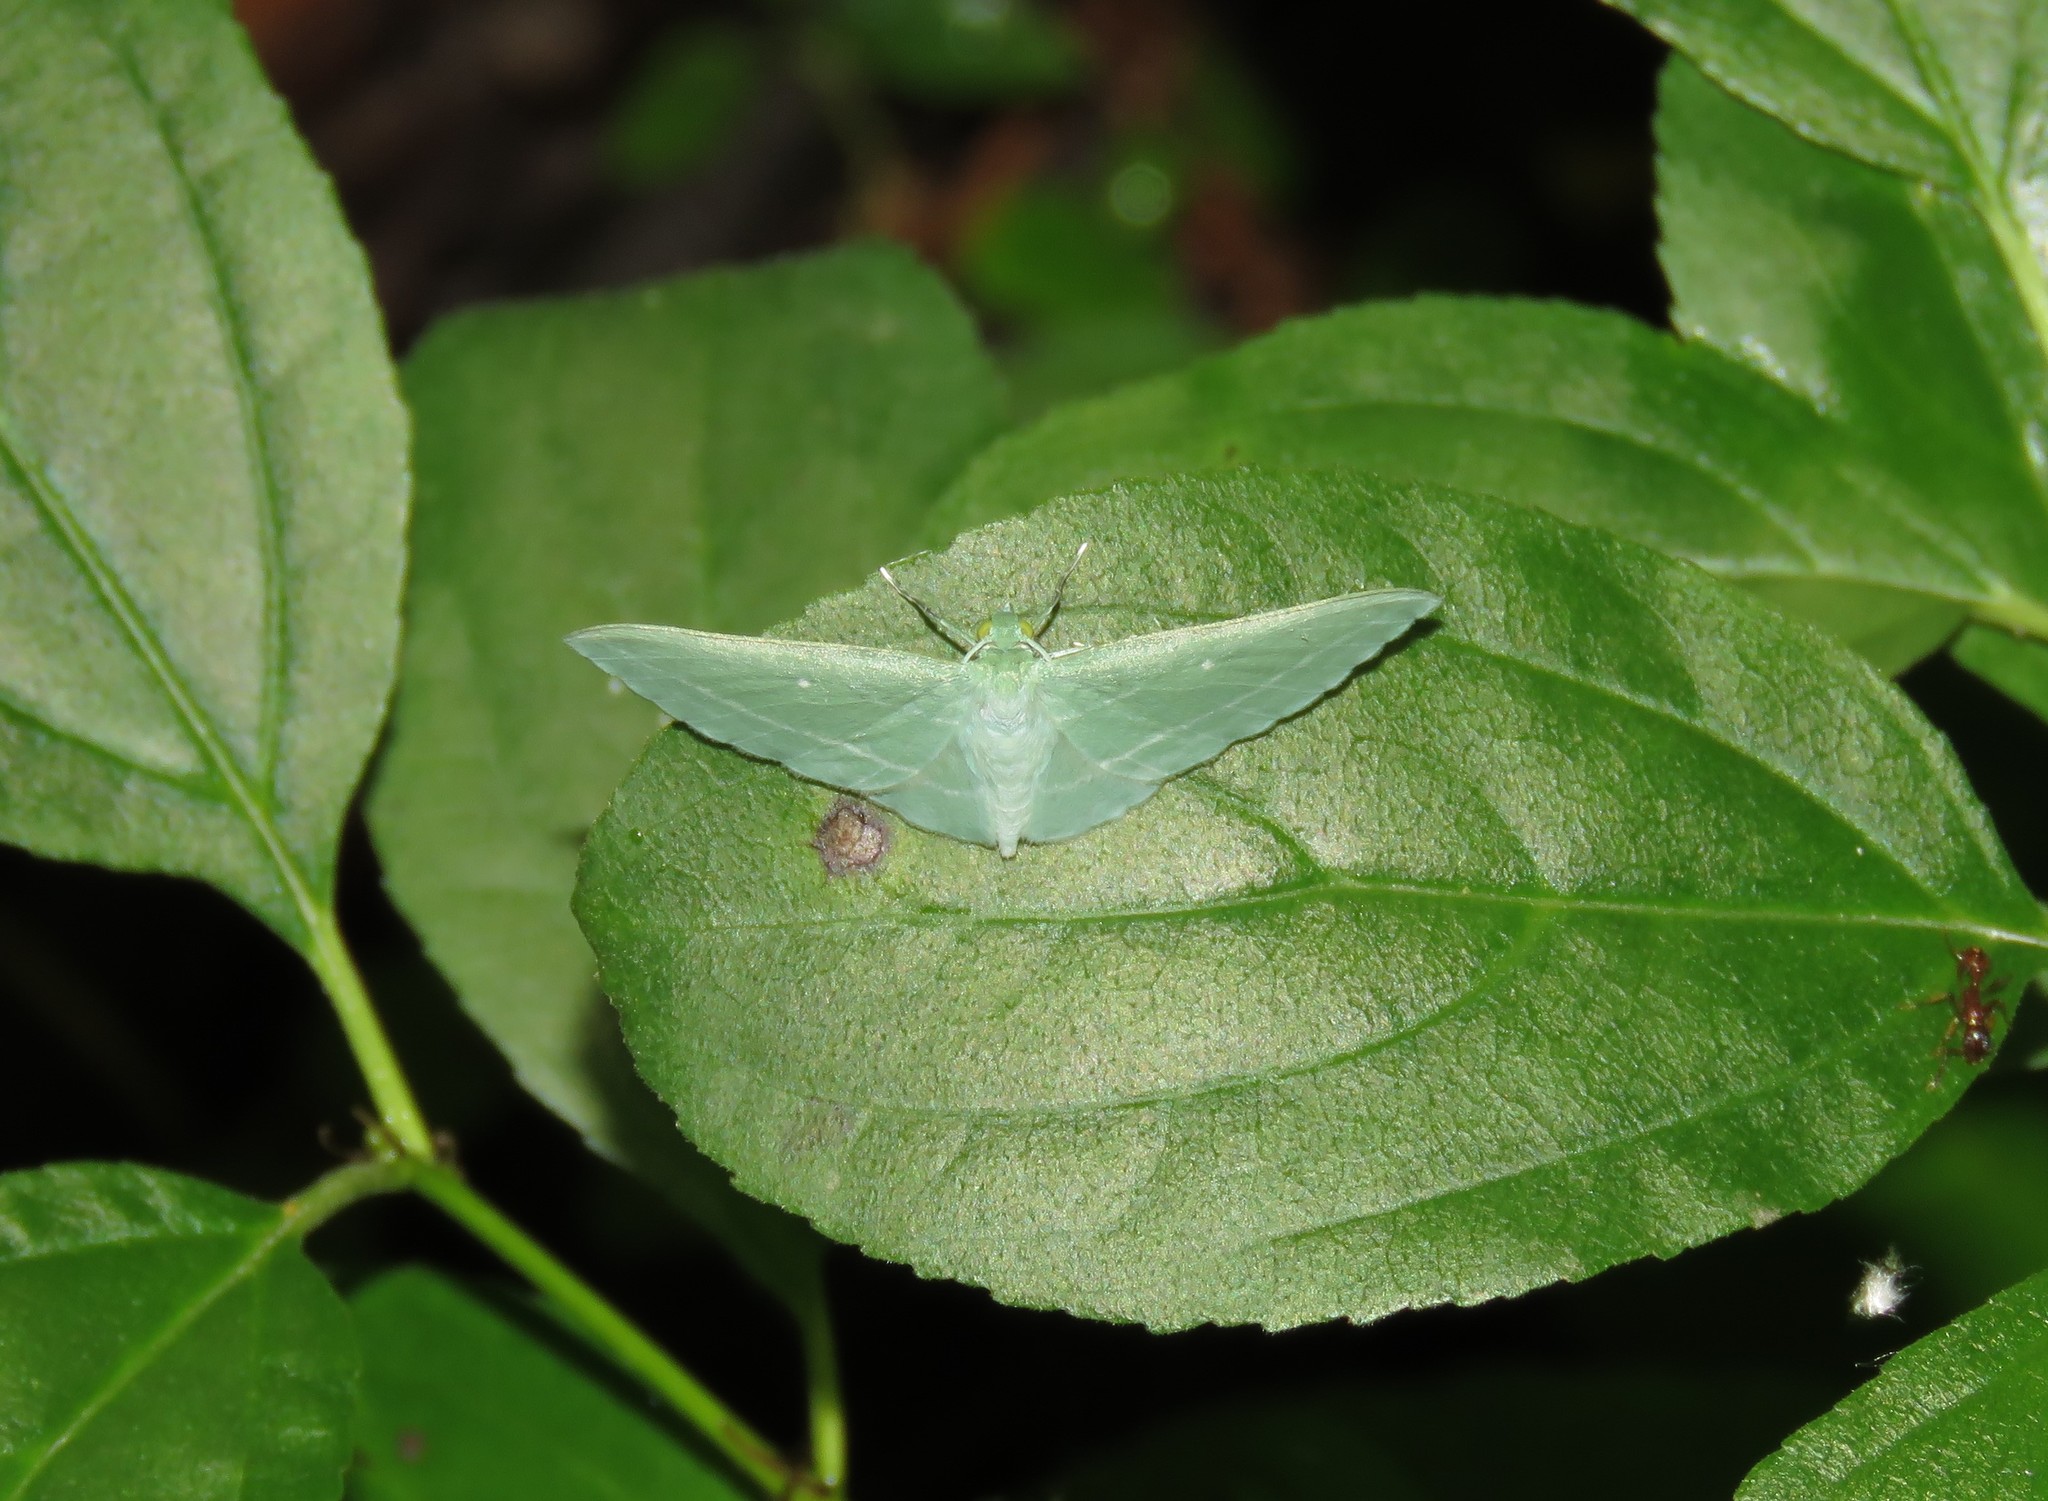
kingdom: Animalia
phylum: Arthropoda
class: Insecta
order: Lepidoptera
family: Geometridae
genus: Dyspteris
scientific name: Dyspteris abortivaria
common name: Bad-wing
